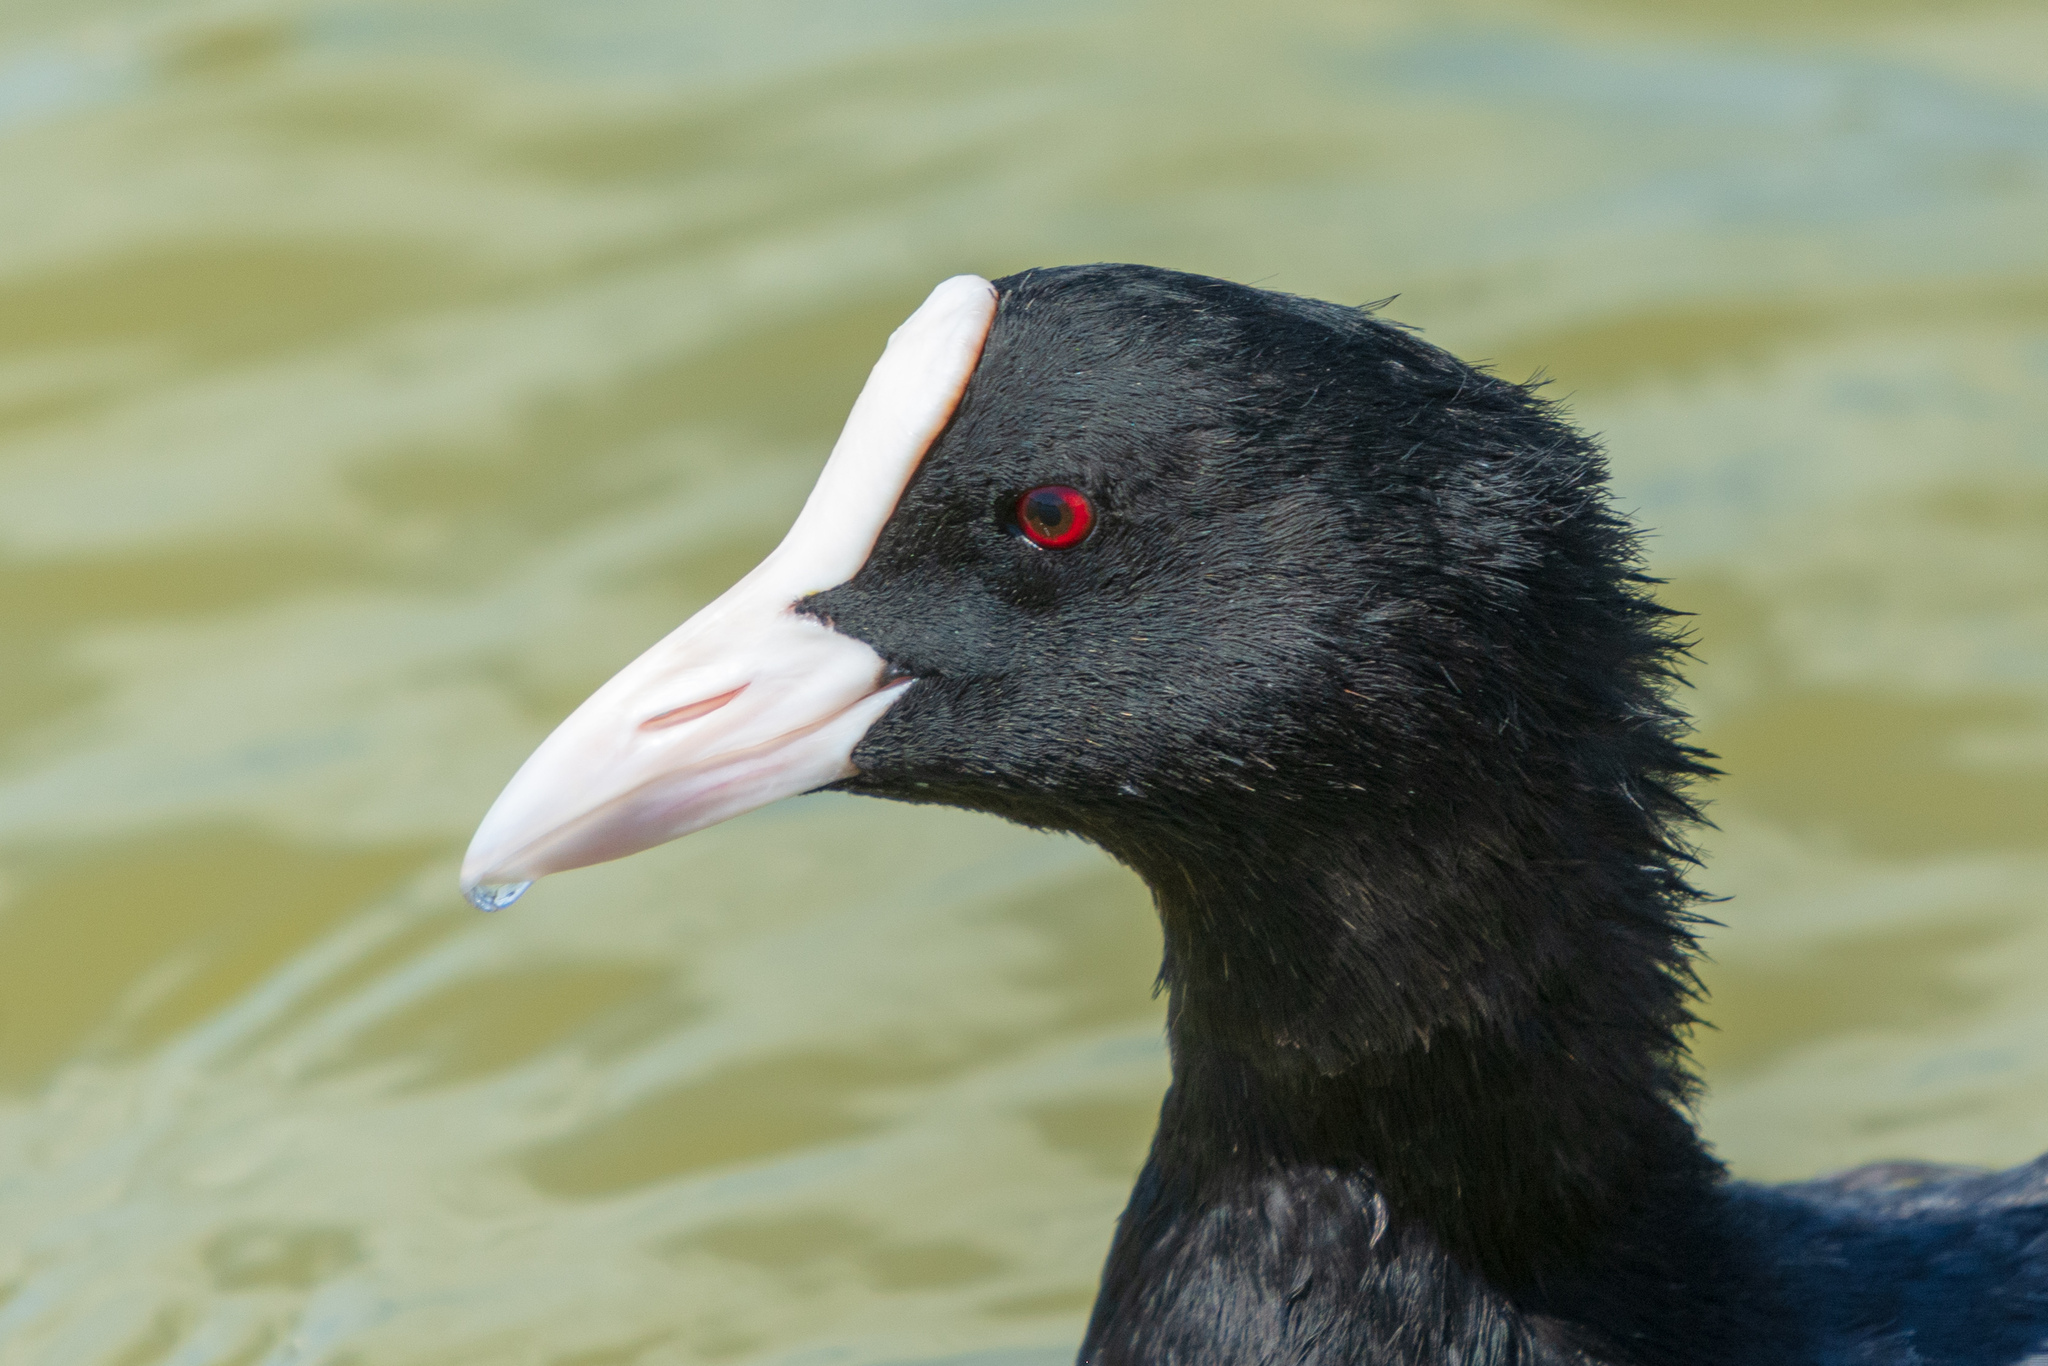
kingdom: Animalia
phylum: Chordata
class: Aves
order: Gruiformes
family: Rallidae
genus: Fulica
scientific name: Fulica atra
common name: Eurasian coot
